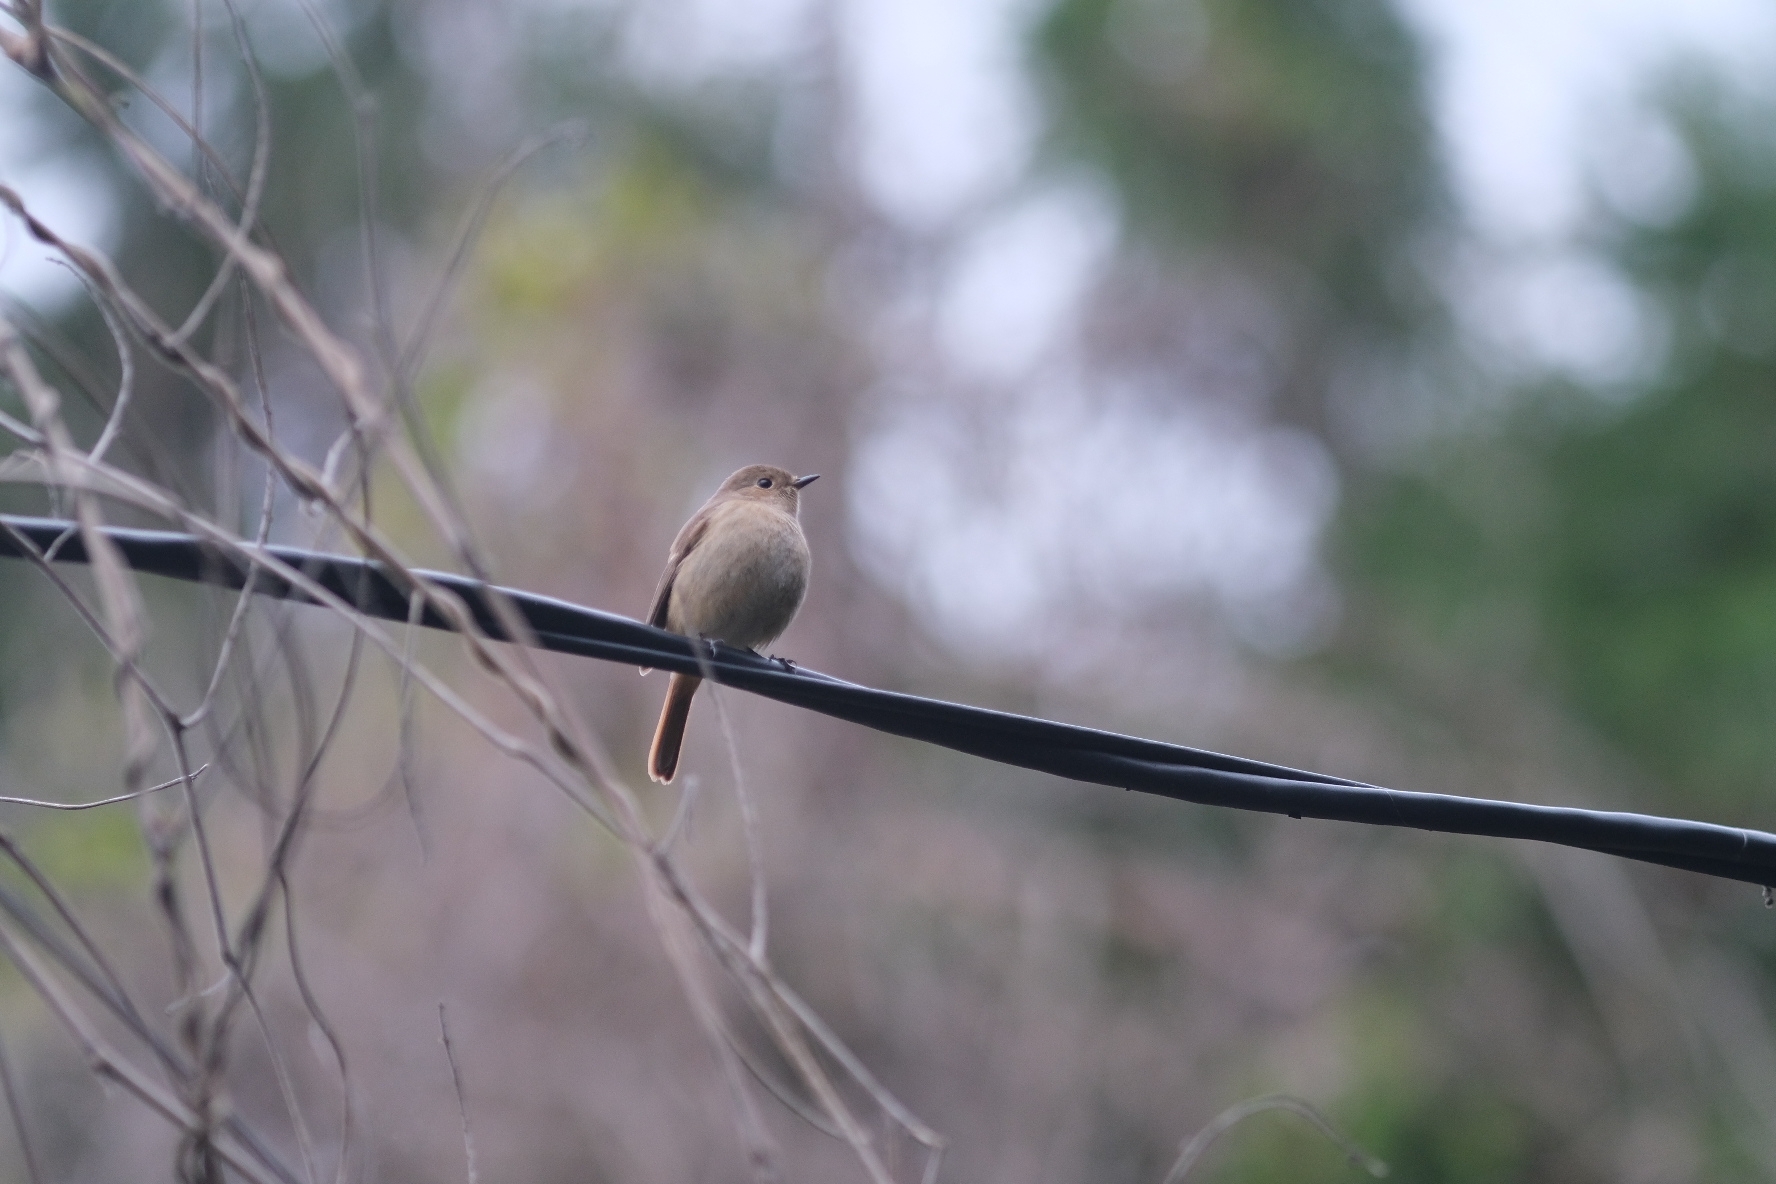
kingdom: Animalia
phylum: Chordata
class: Aves
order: Passeriformes
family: Muscicapidae
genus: Phoenicurus
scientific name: Phoenicurus auroreus
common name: Daurian redstart
